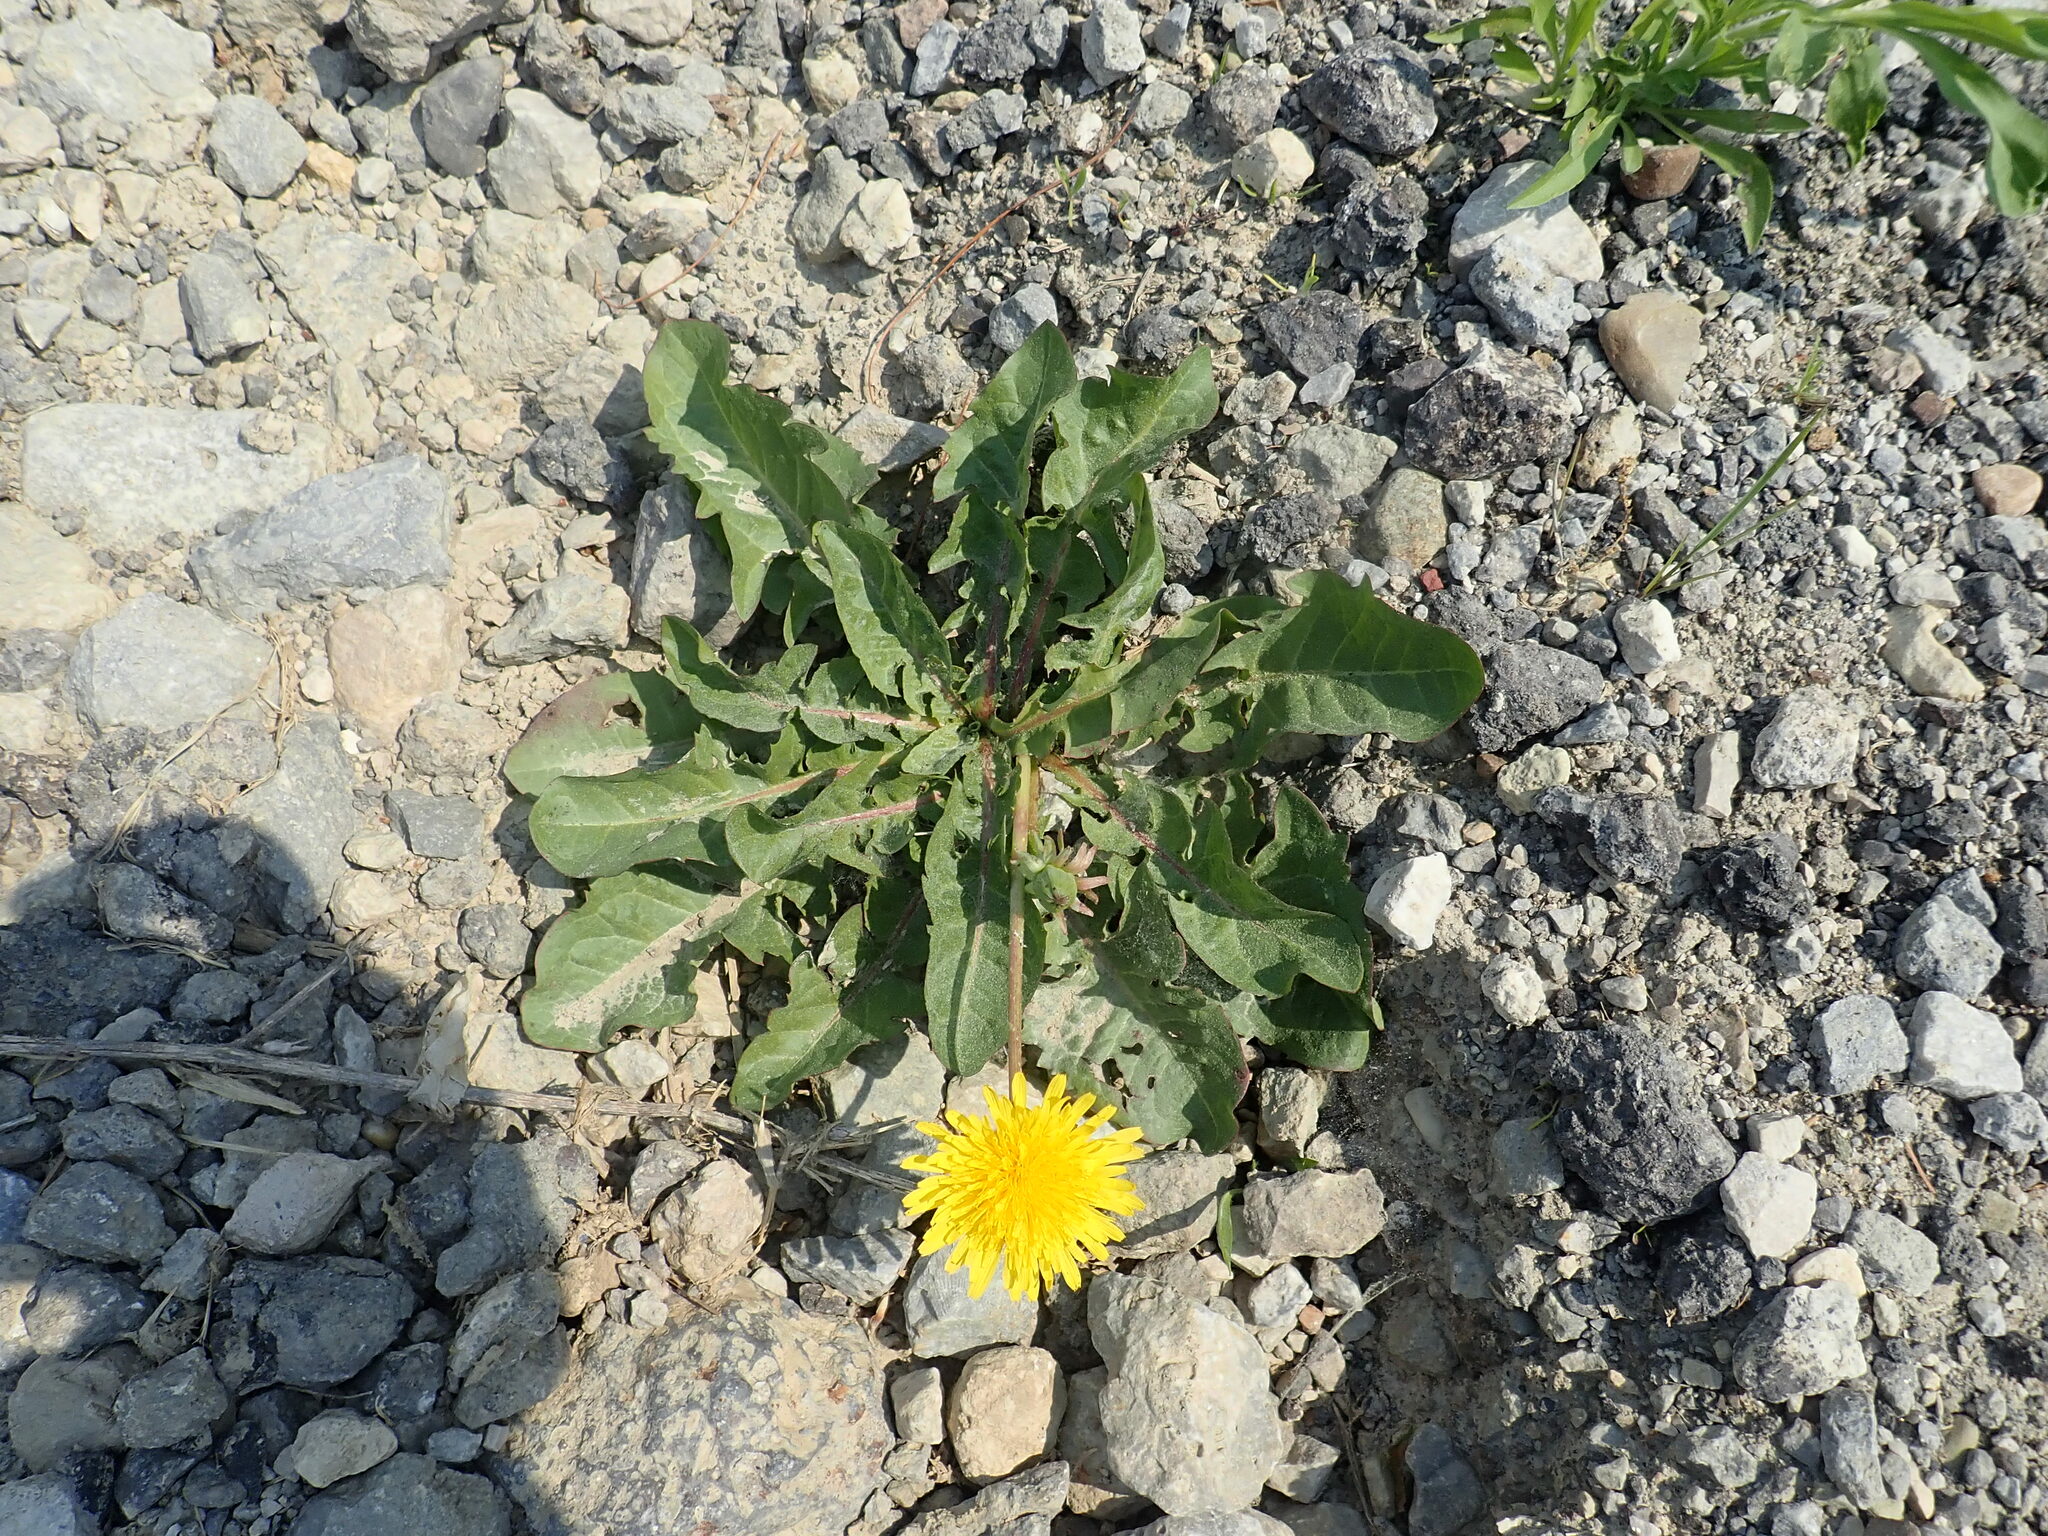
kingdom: Plantae
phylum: Tracheophyta
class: Magnoliopsida
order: Asterales
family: Asteraceae
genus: Taraxacum
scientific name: Taraxacum officinale
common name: Common dandelion
